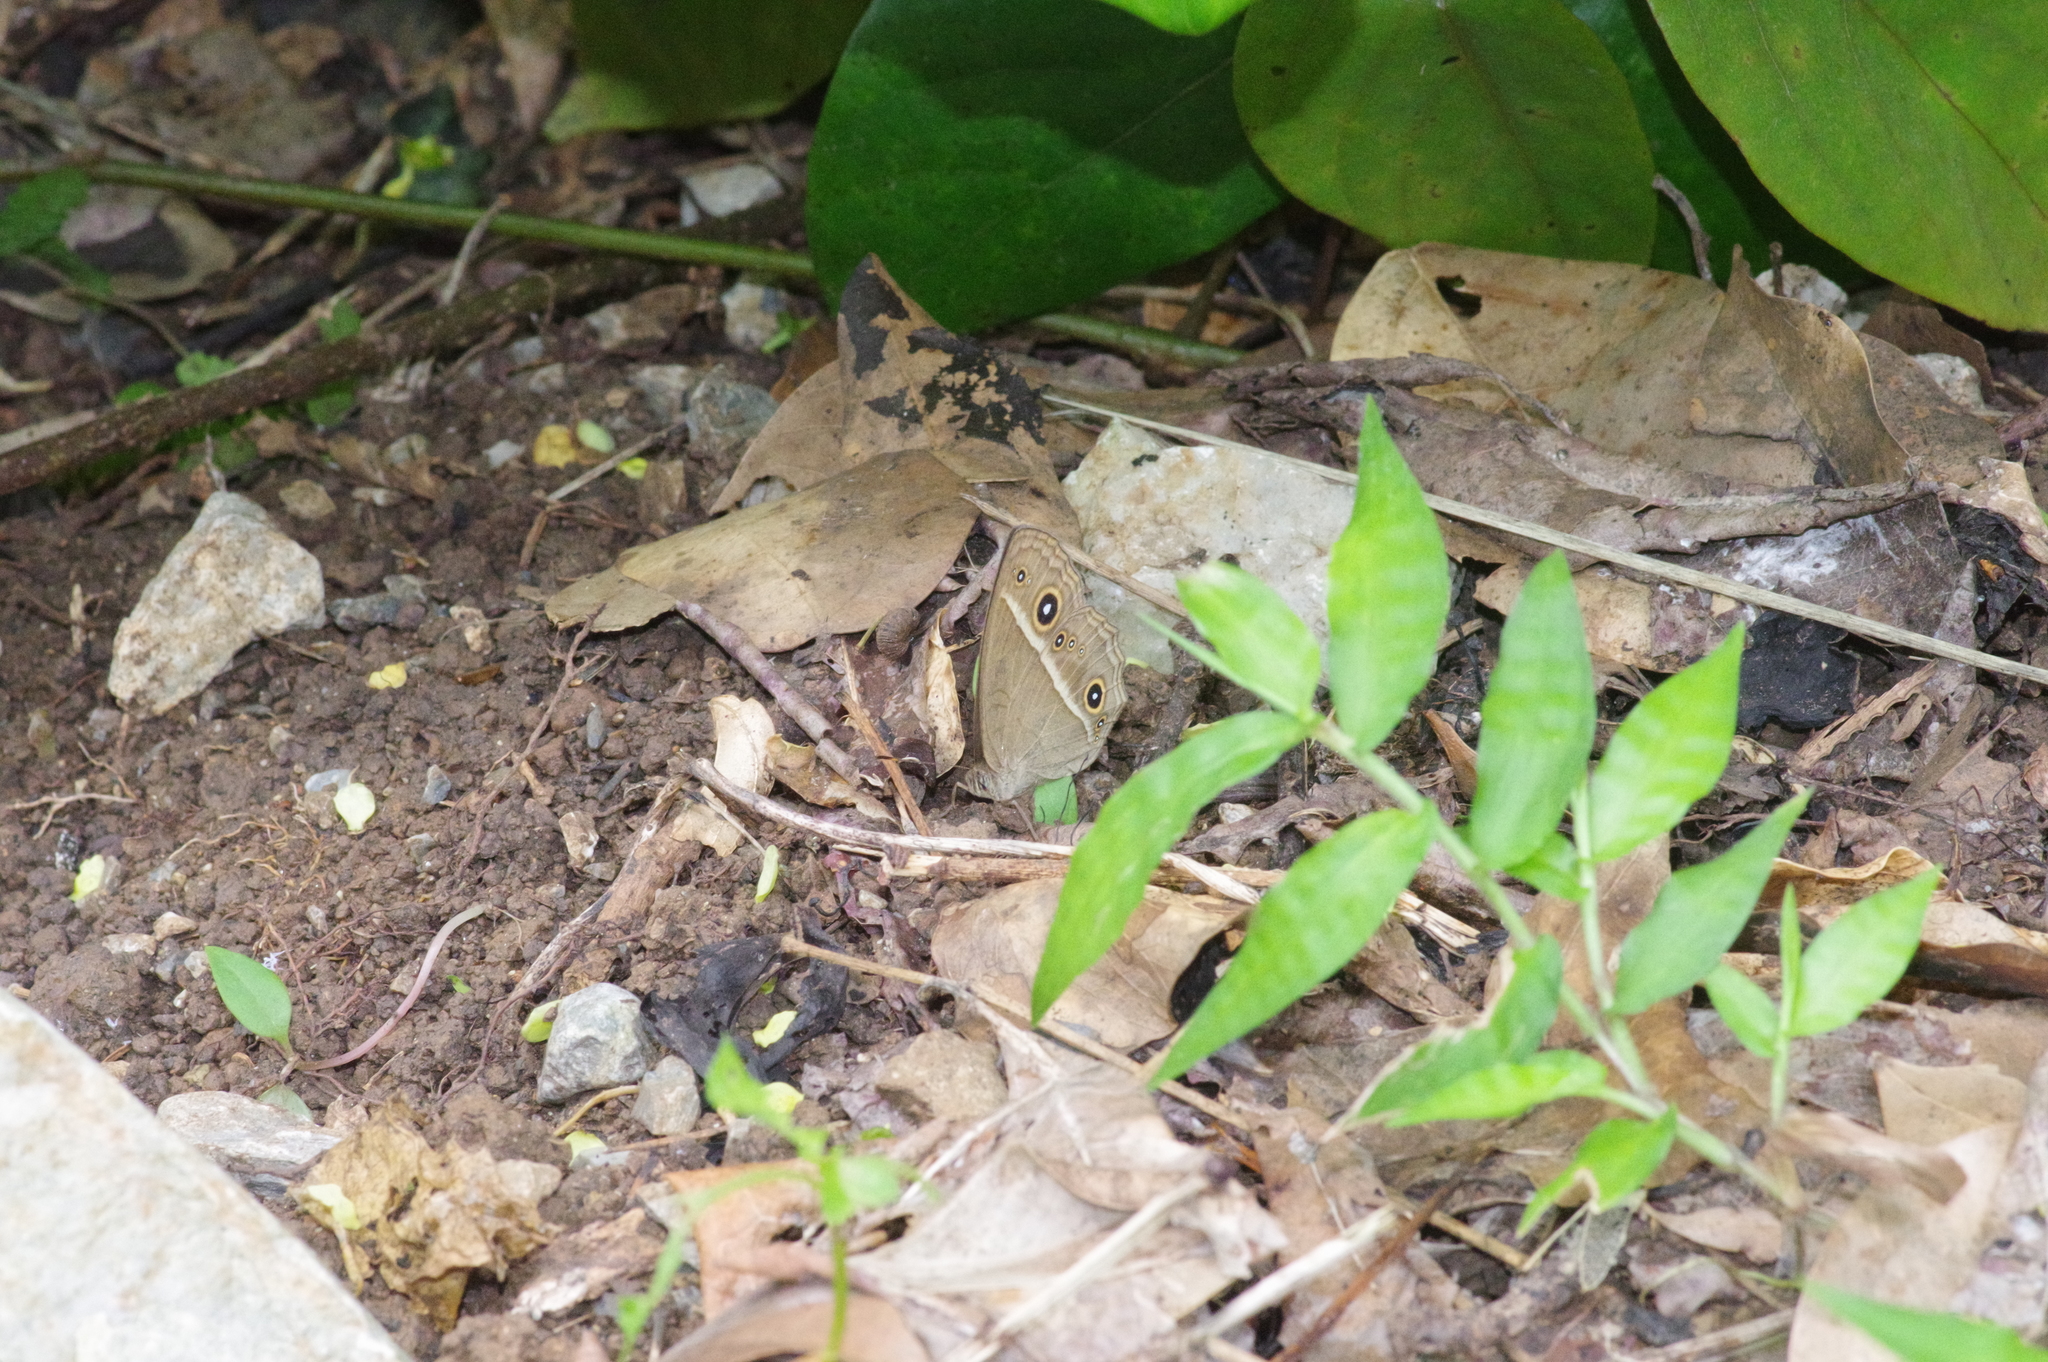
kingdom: Animalia
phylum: Arthropoda
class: Insecta
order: Lepidoptera
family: Nymphalidae
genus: Mycalesis
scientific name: Mycalesis gotama
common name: Chinese bushbrown
